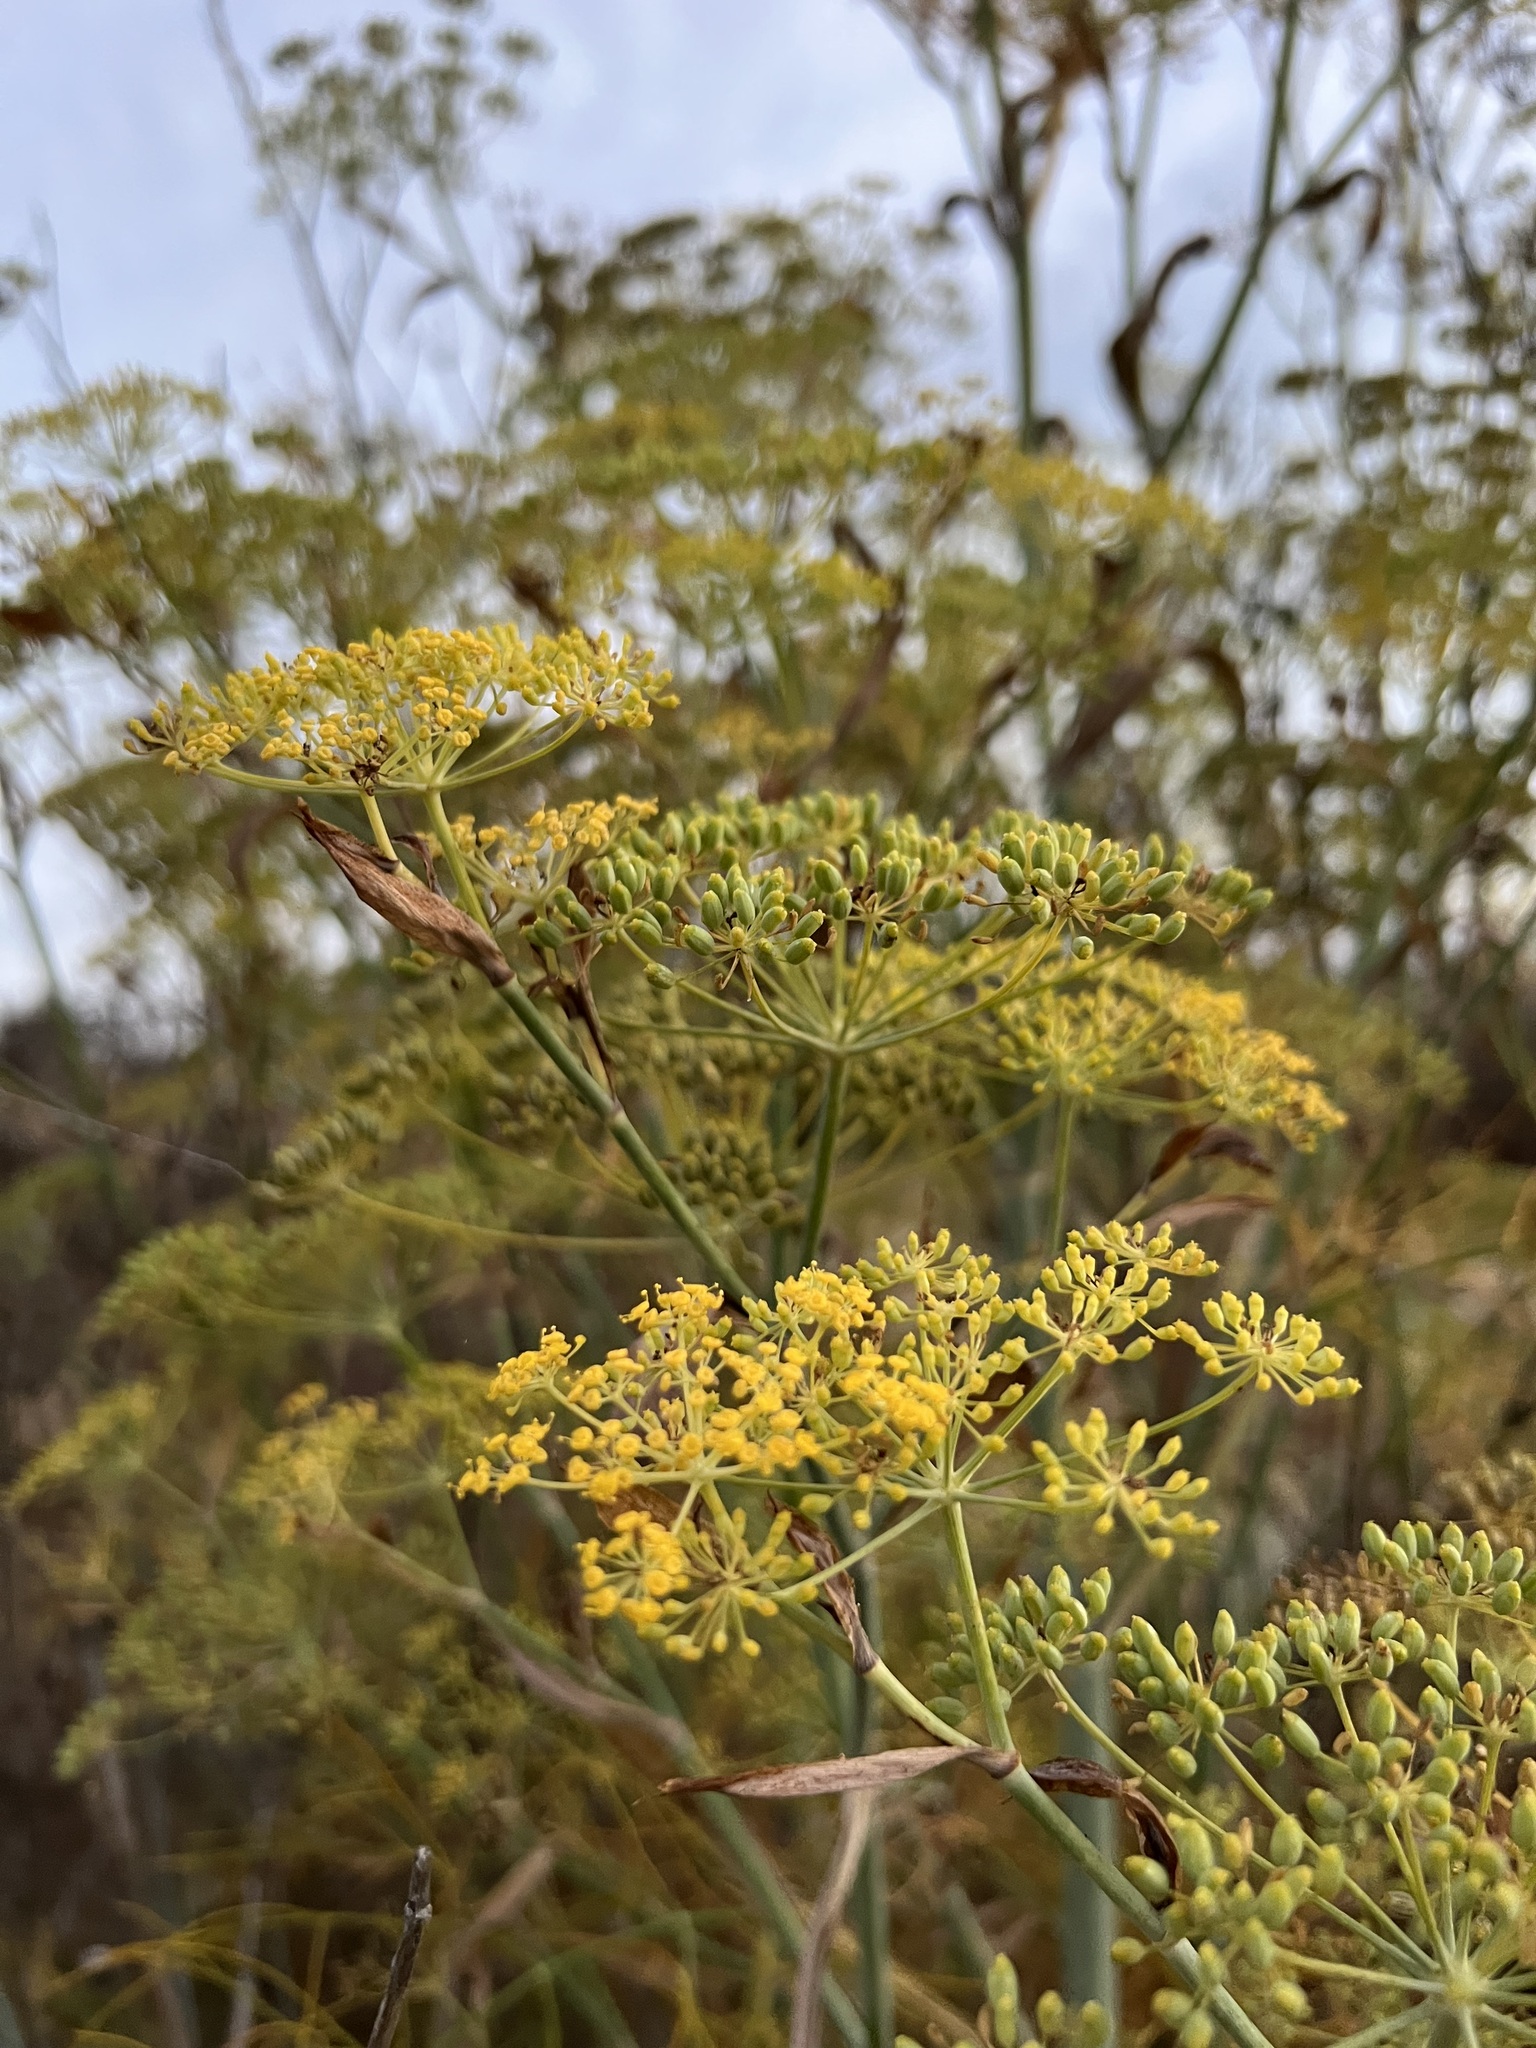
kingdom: Plantae
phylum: Tracheophyta
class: Magnoliopsida
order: Apiales
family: Apiaceae
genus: Foeniculum
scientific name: Foeniculum vulgare
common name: Fennel
